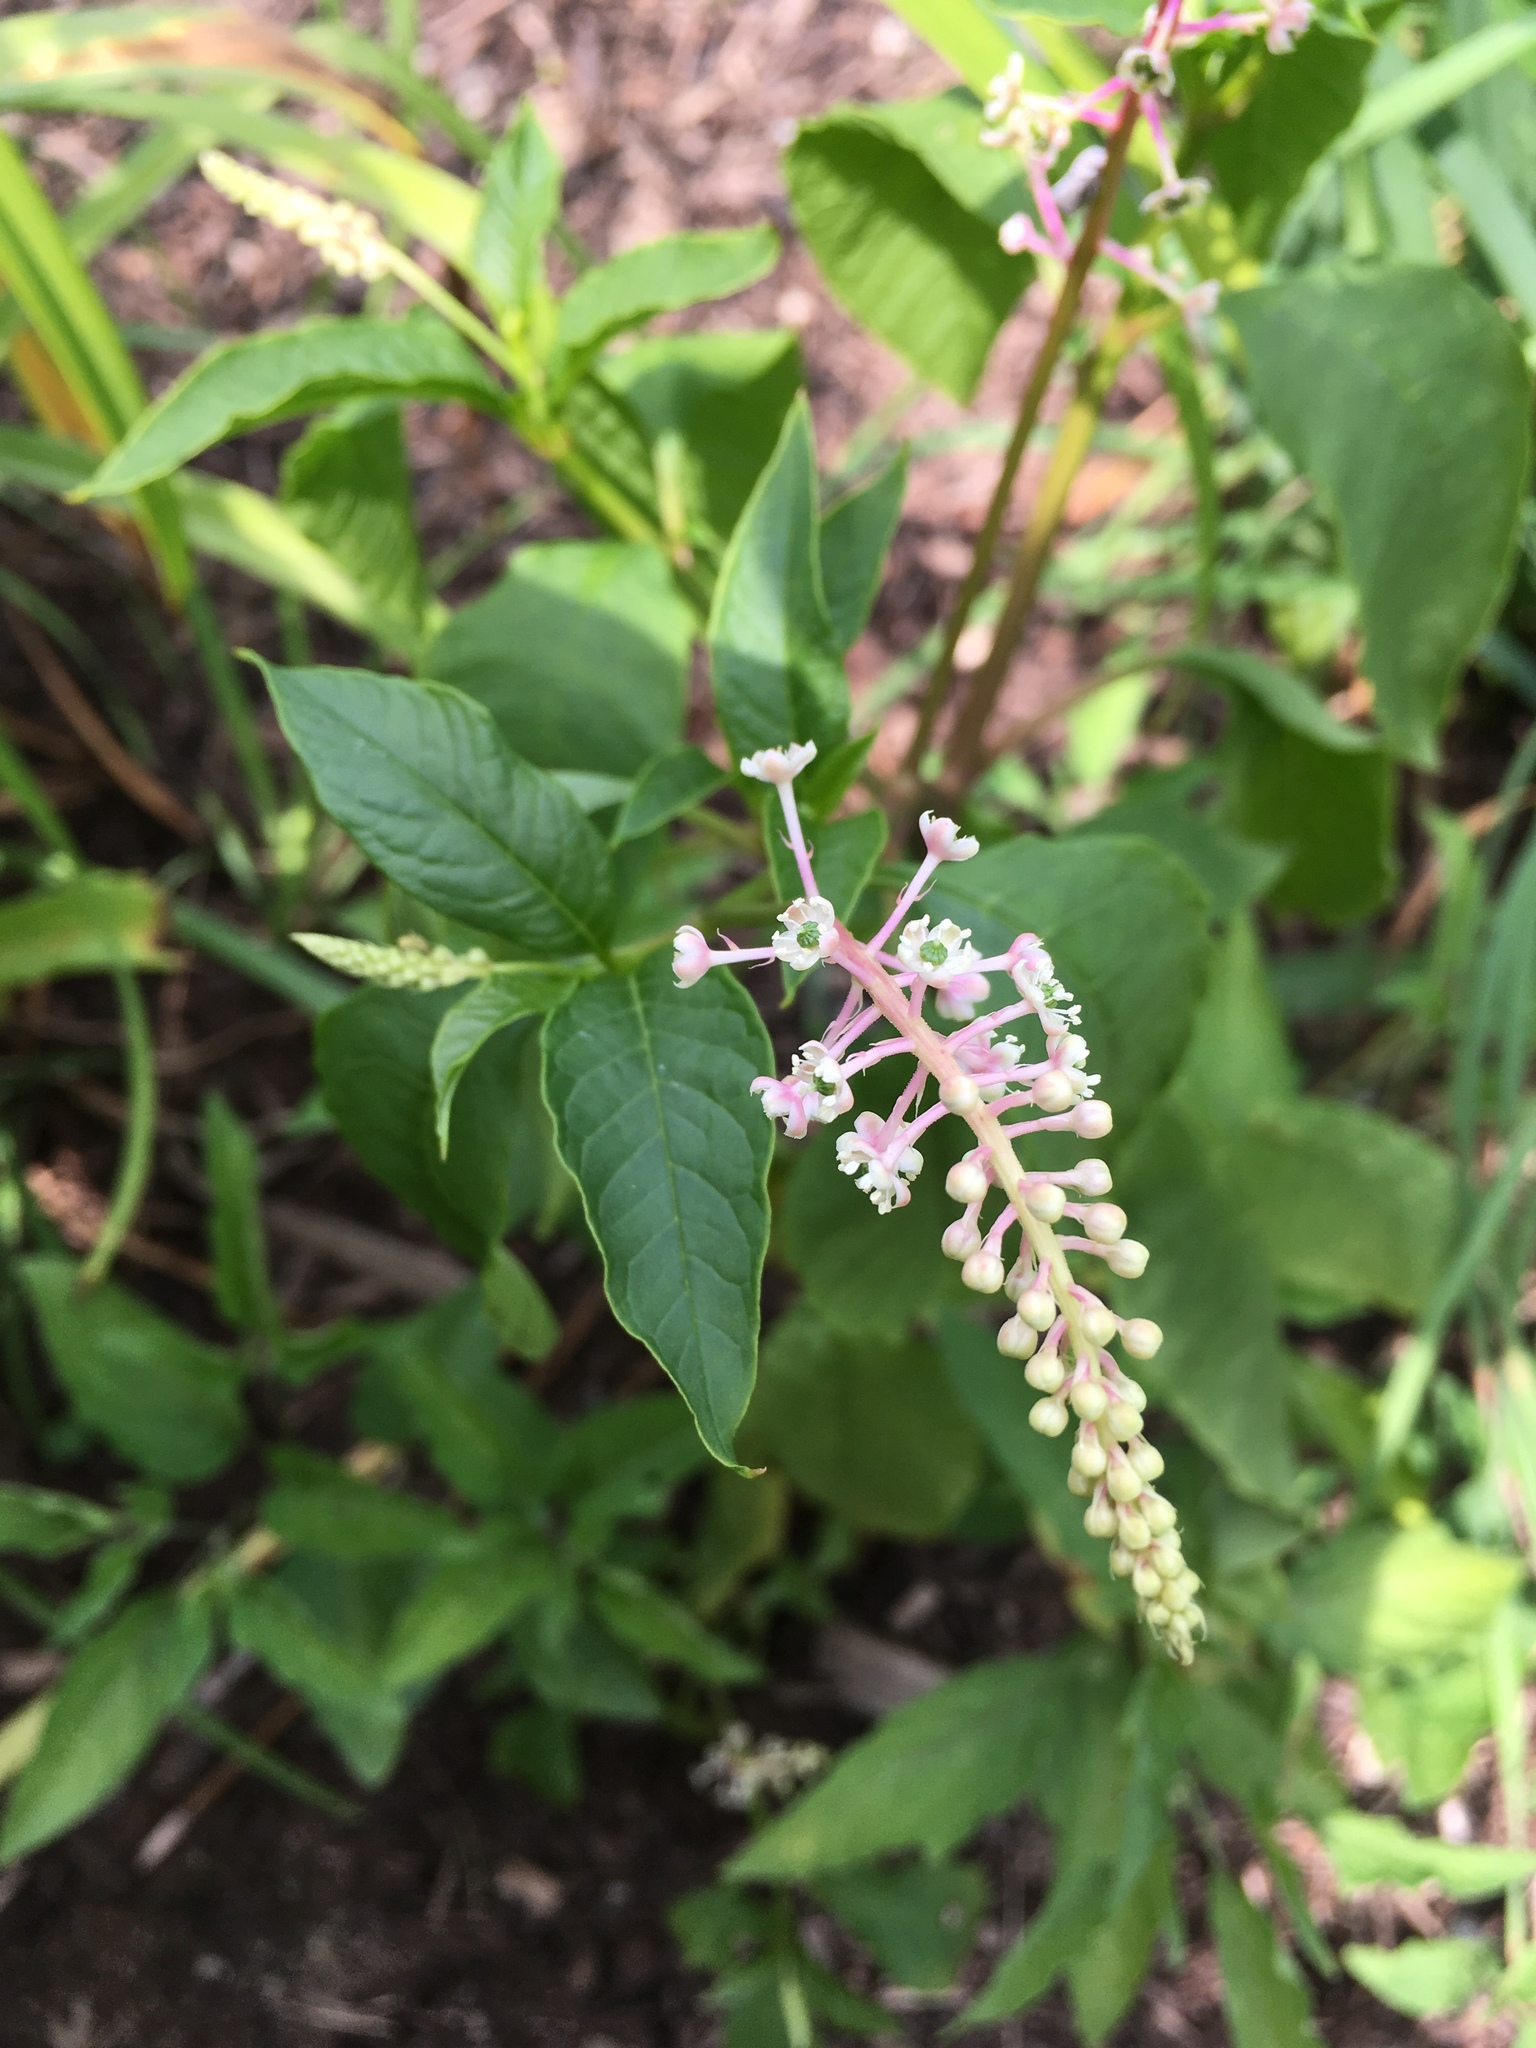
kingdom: Plantae
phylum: Tracheophyta
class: Magnoliopsida
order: Caryophyllales
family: Phytolaccaceae
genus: Phytolacca
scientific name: Phytolacca americana
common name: American pokeweed
